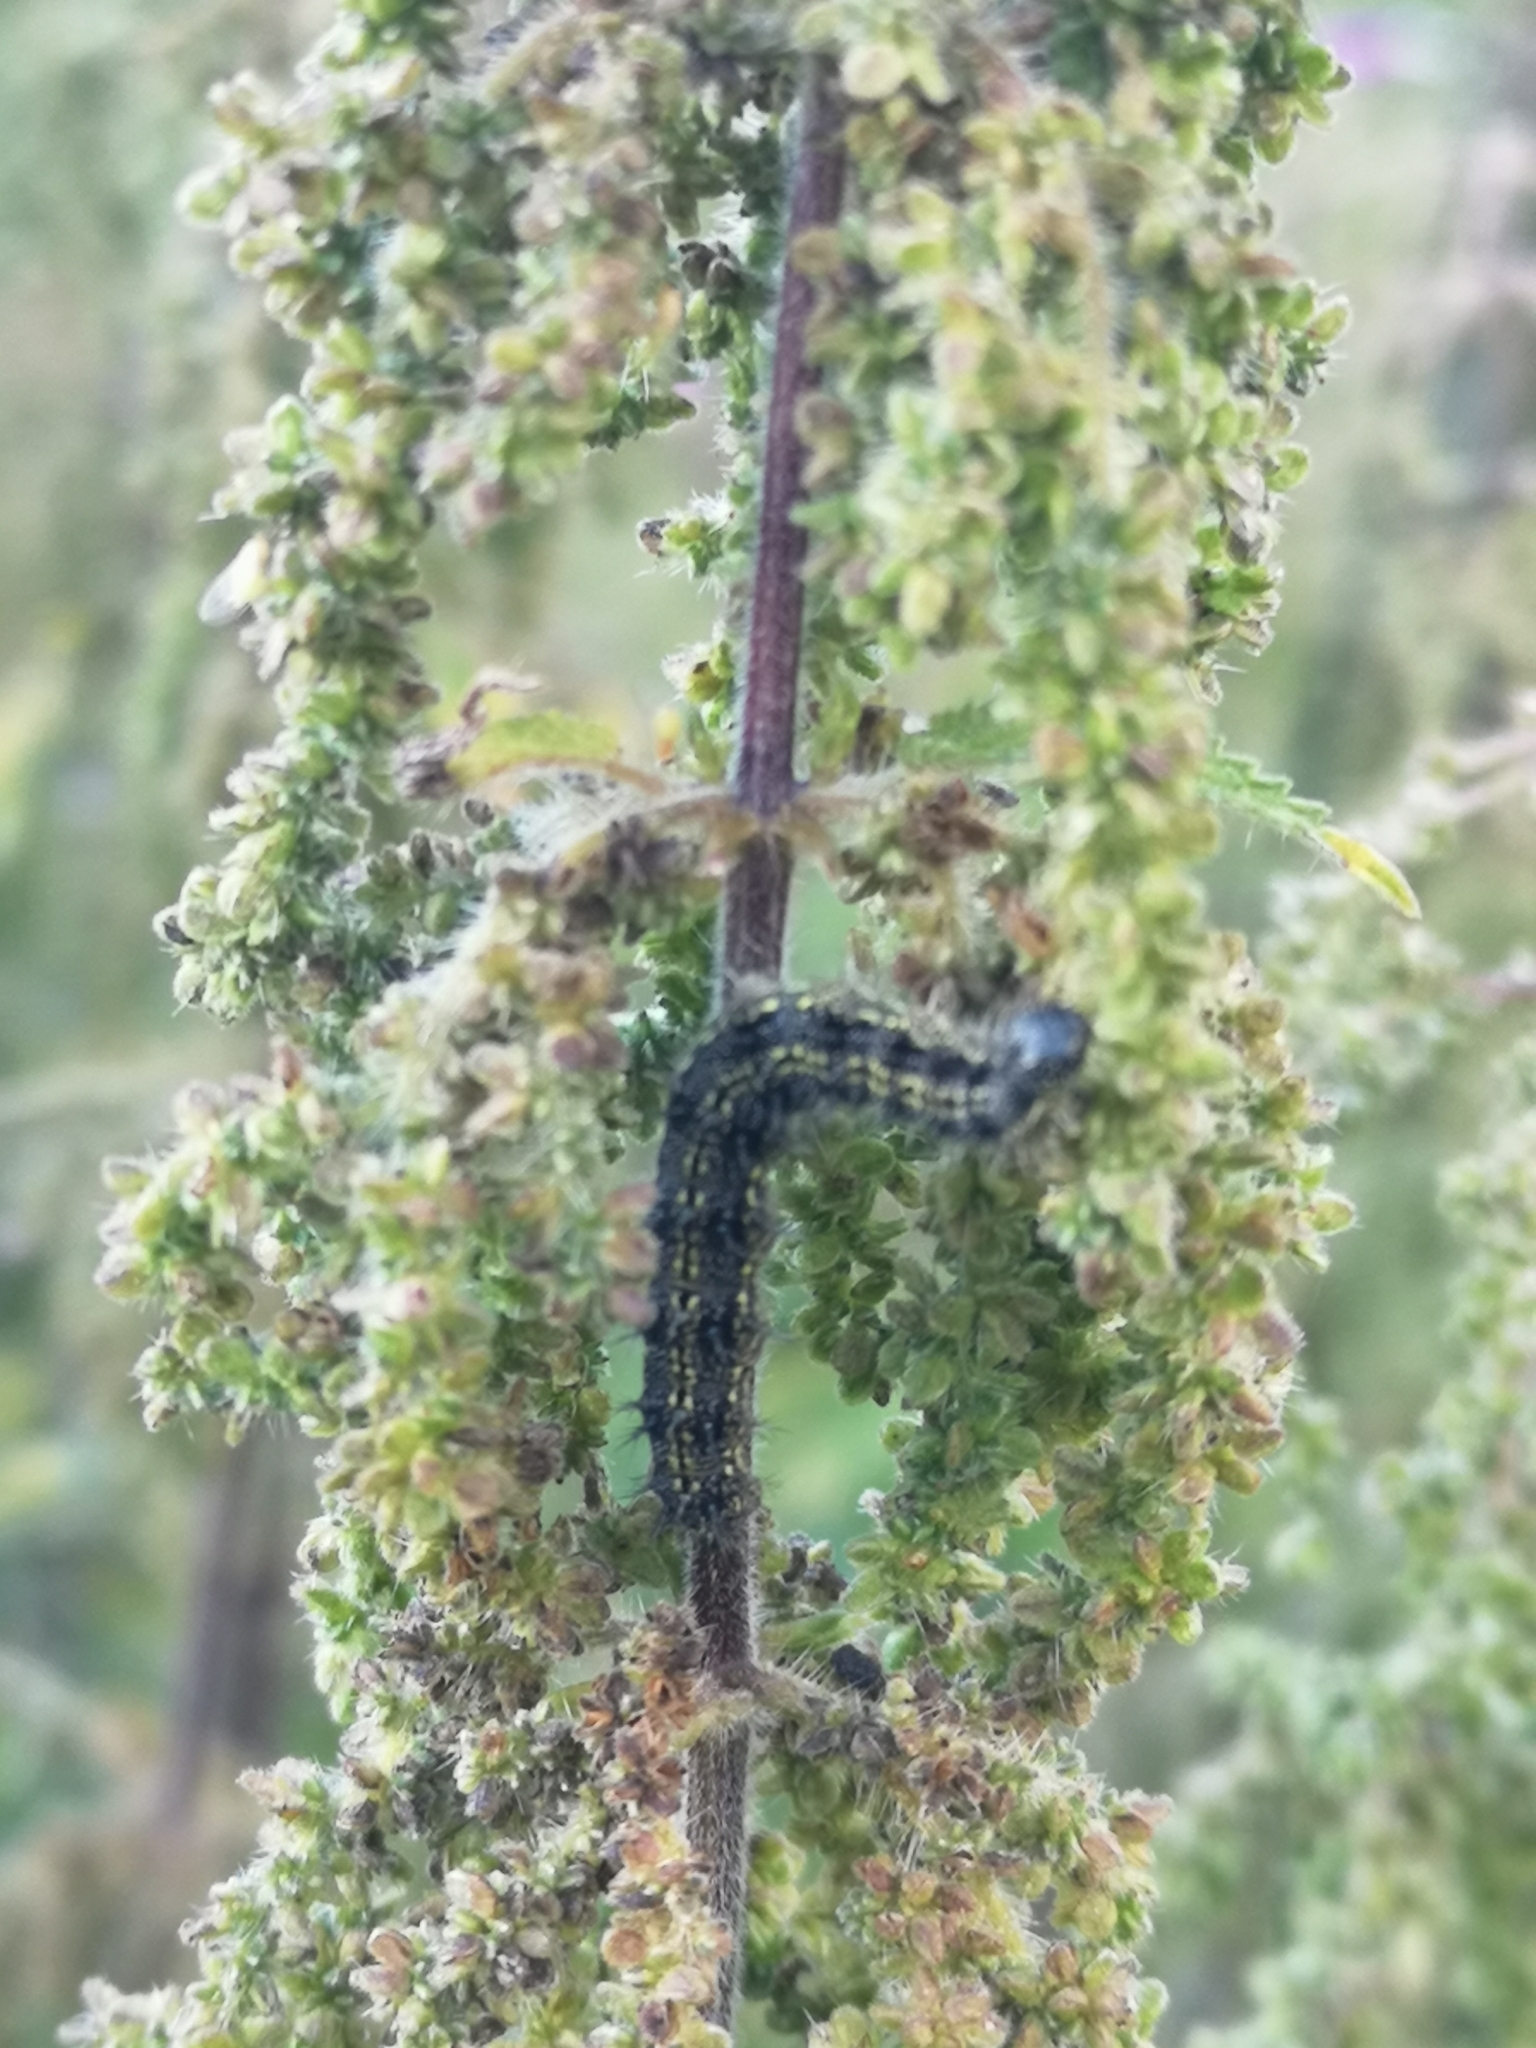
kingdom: Animalia
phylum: Arthropoda
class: Insecta
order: Lepidoptera
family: Nymphalidae
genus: Aglais
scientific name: Aglais urticae
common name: Small tortoiseshell
